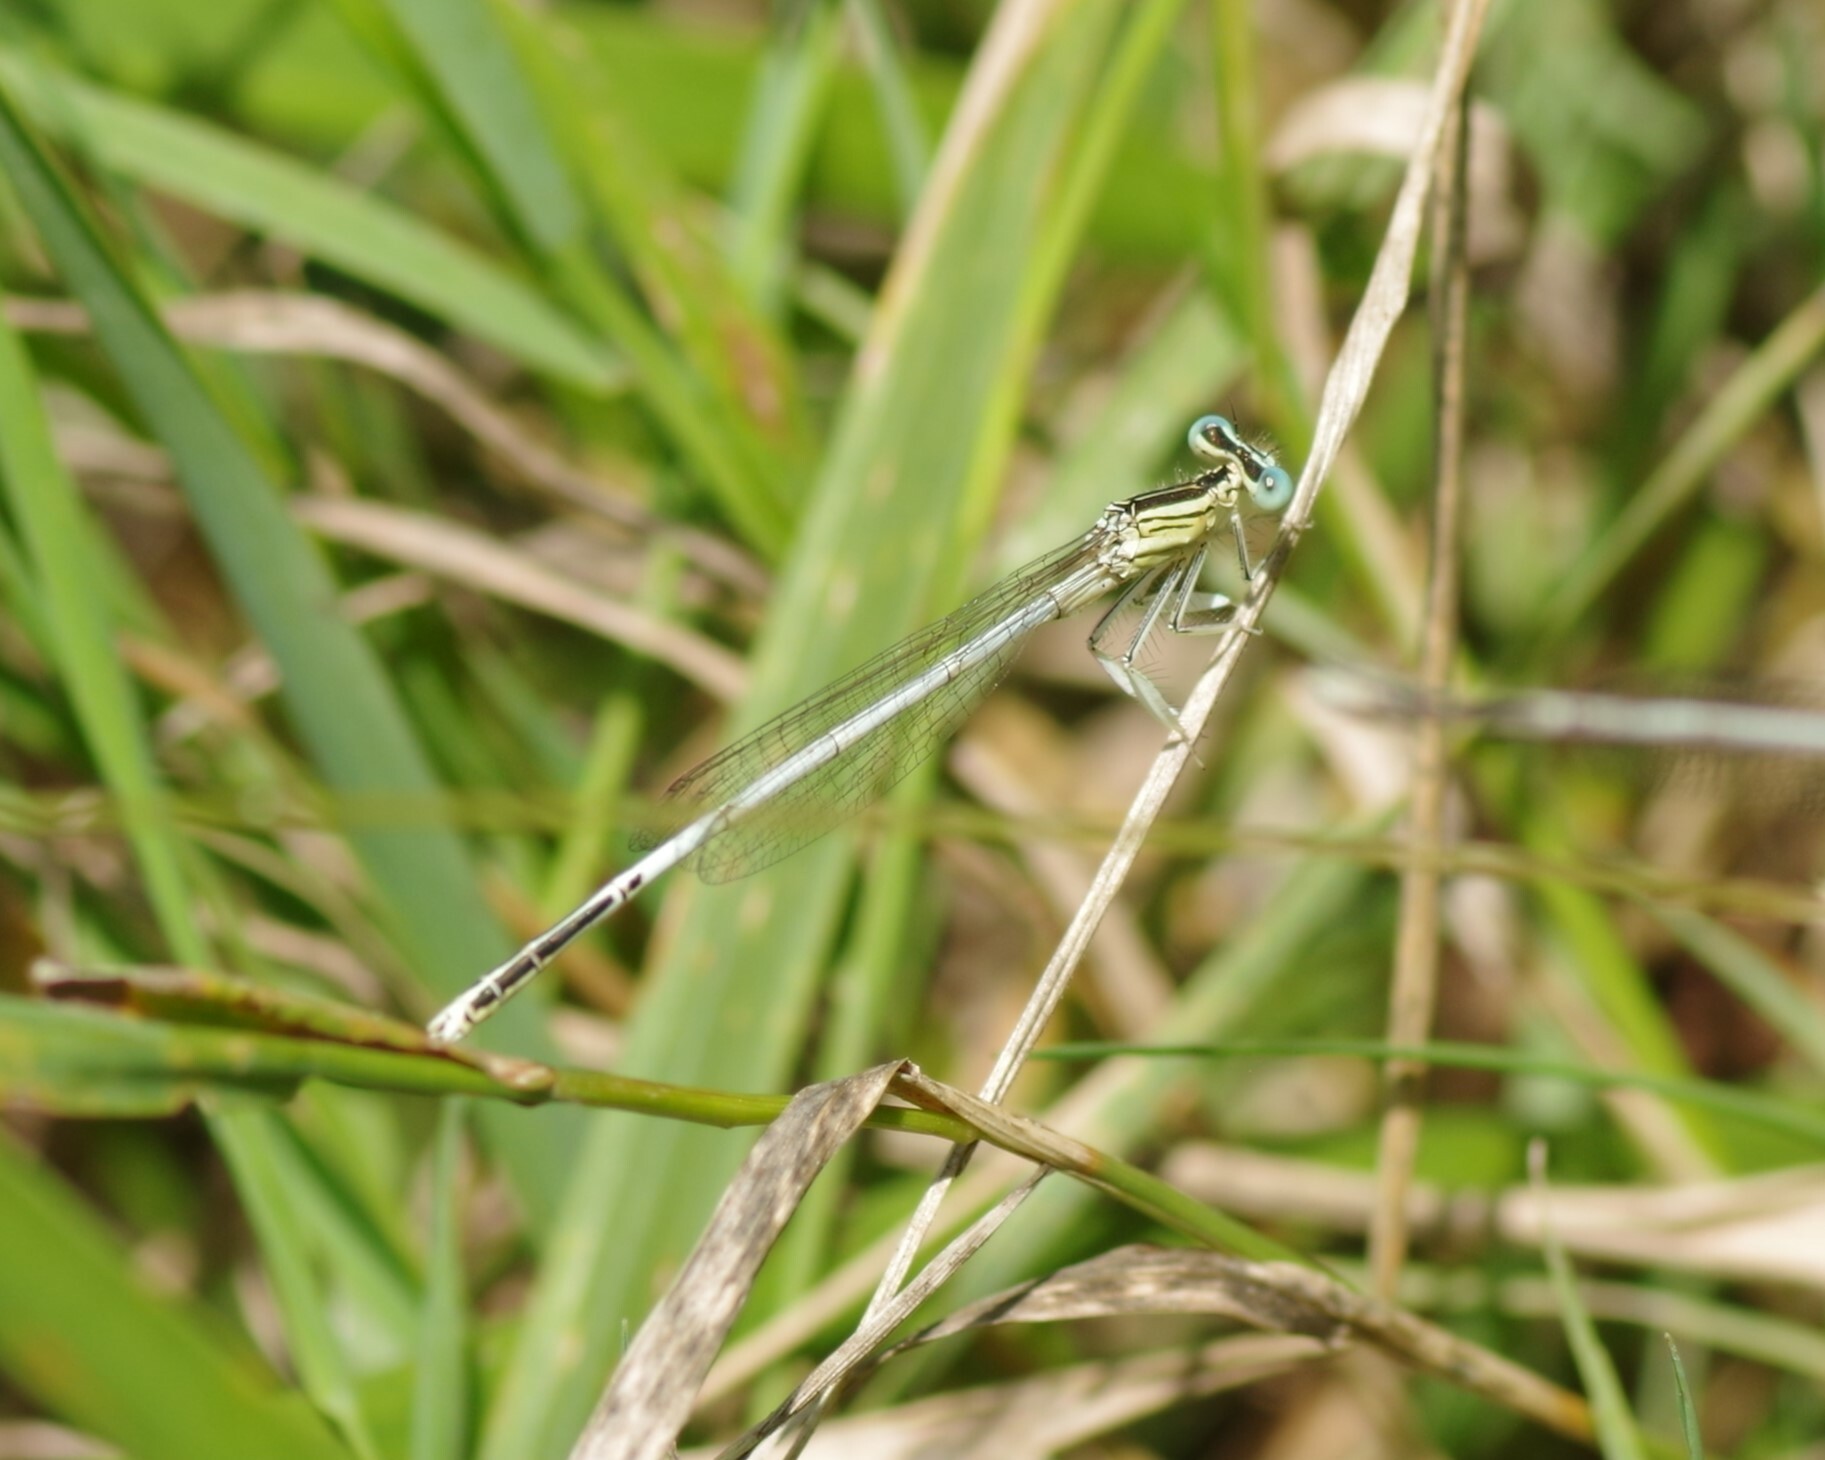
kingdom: Animalia
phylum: Arthropoda
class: Insecta
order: Odonata
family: Platycnemididae
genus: Platycnemis
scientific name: Platycnemis latipes
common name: White featherleg
